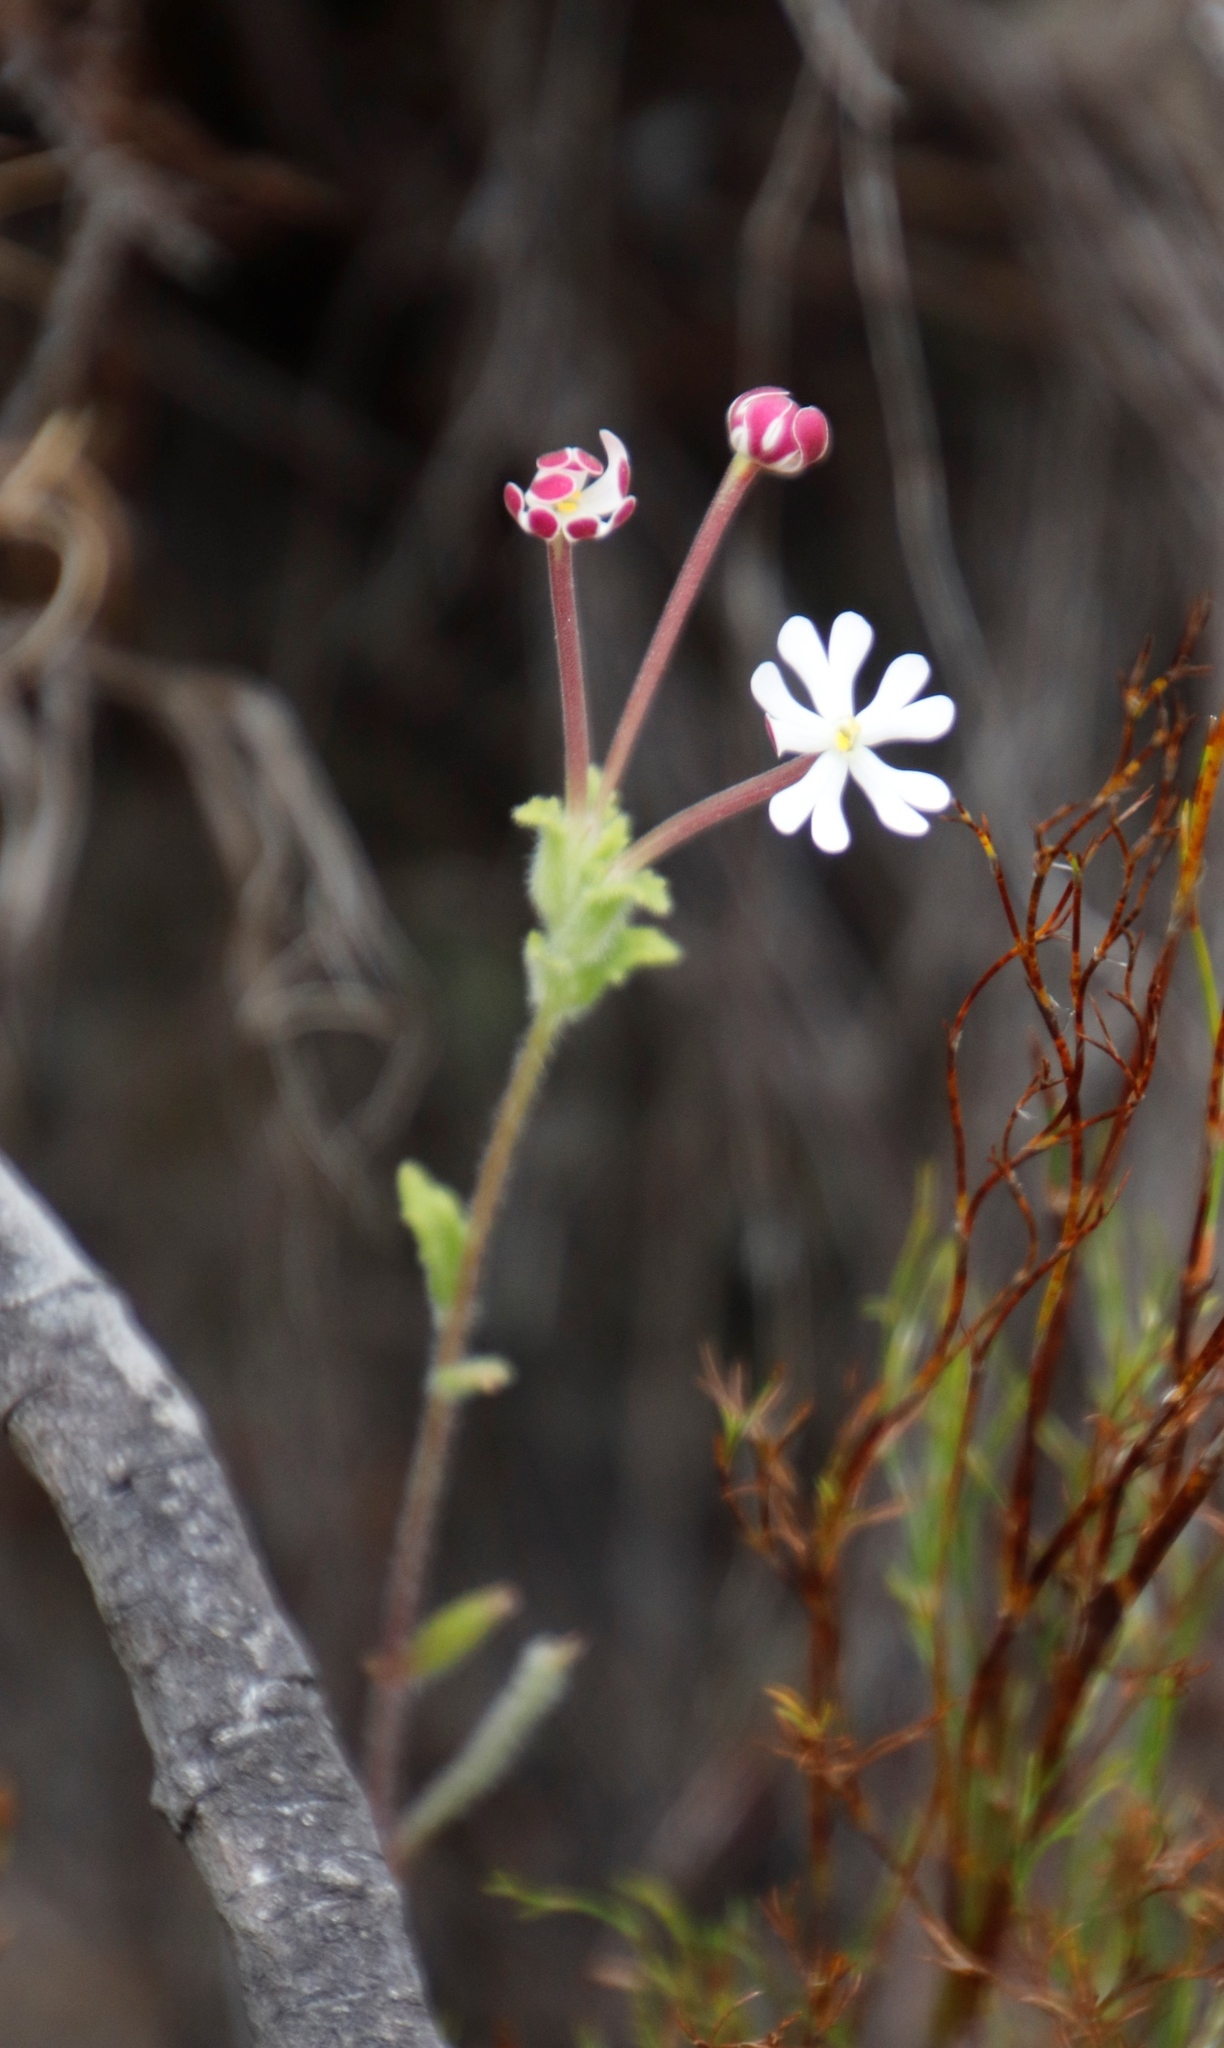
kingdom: Plantae
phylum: Tracheophyta
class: Magnoliopsida
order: Lamiales
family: Scrophulariaceae
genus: Zaluzianskya
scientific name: Zaluzianskya capensis
